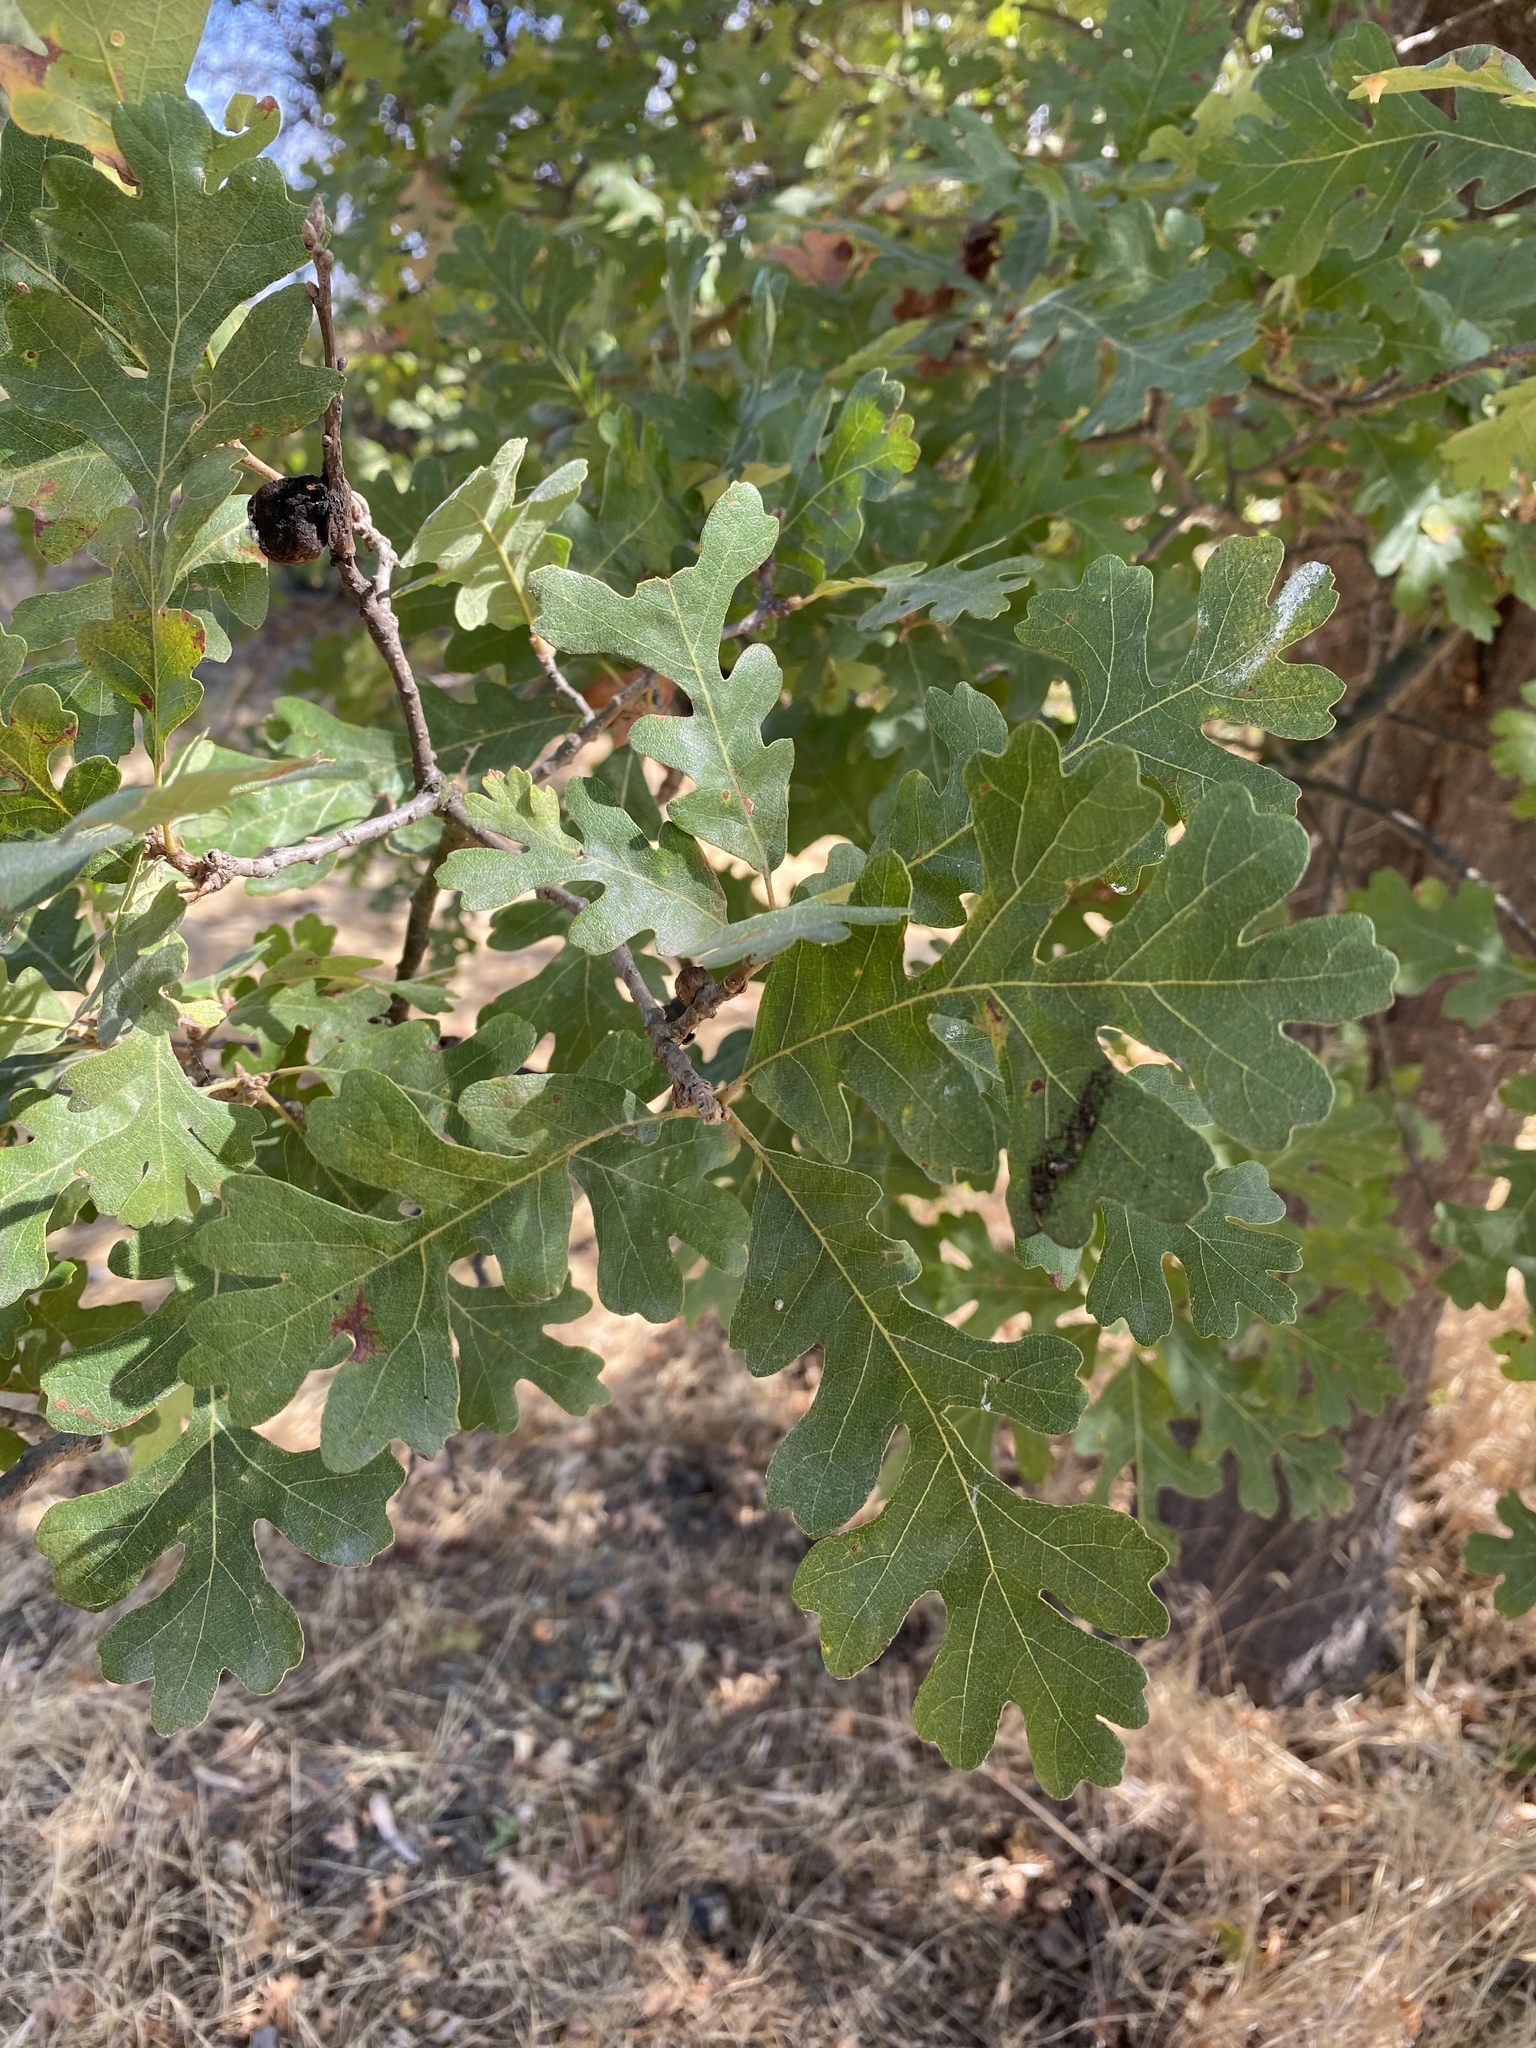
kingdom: Plantae
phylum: Tracheophyta
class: Magnoliopsida
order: Fagales
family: Fagaceae
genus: Quercus
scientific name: Quercus lobata
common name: Valley oak
